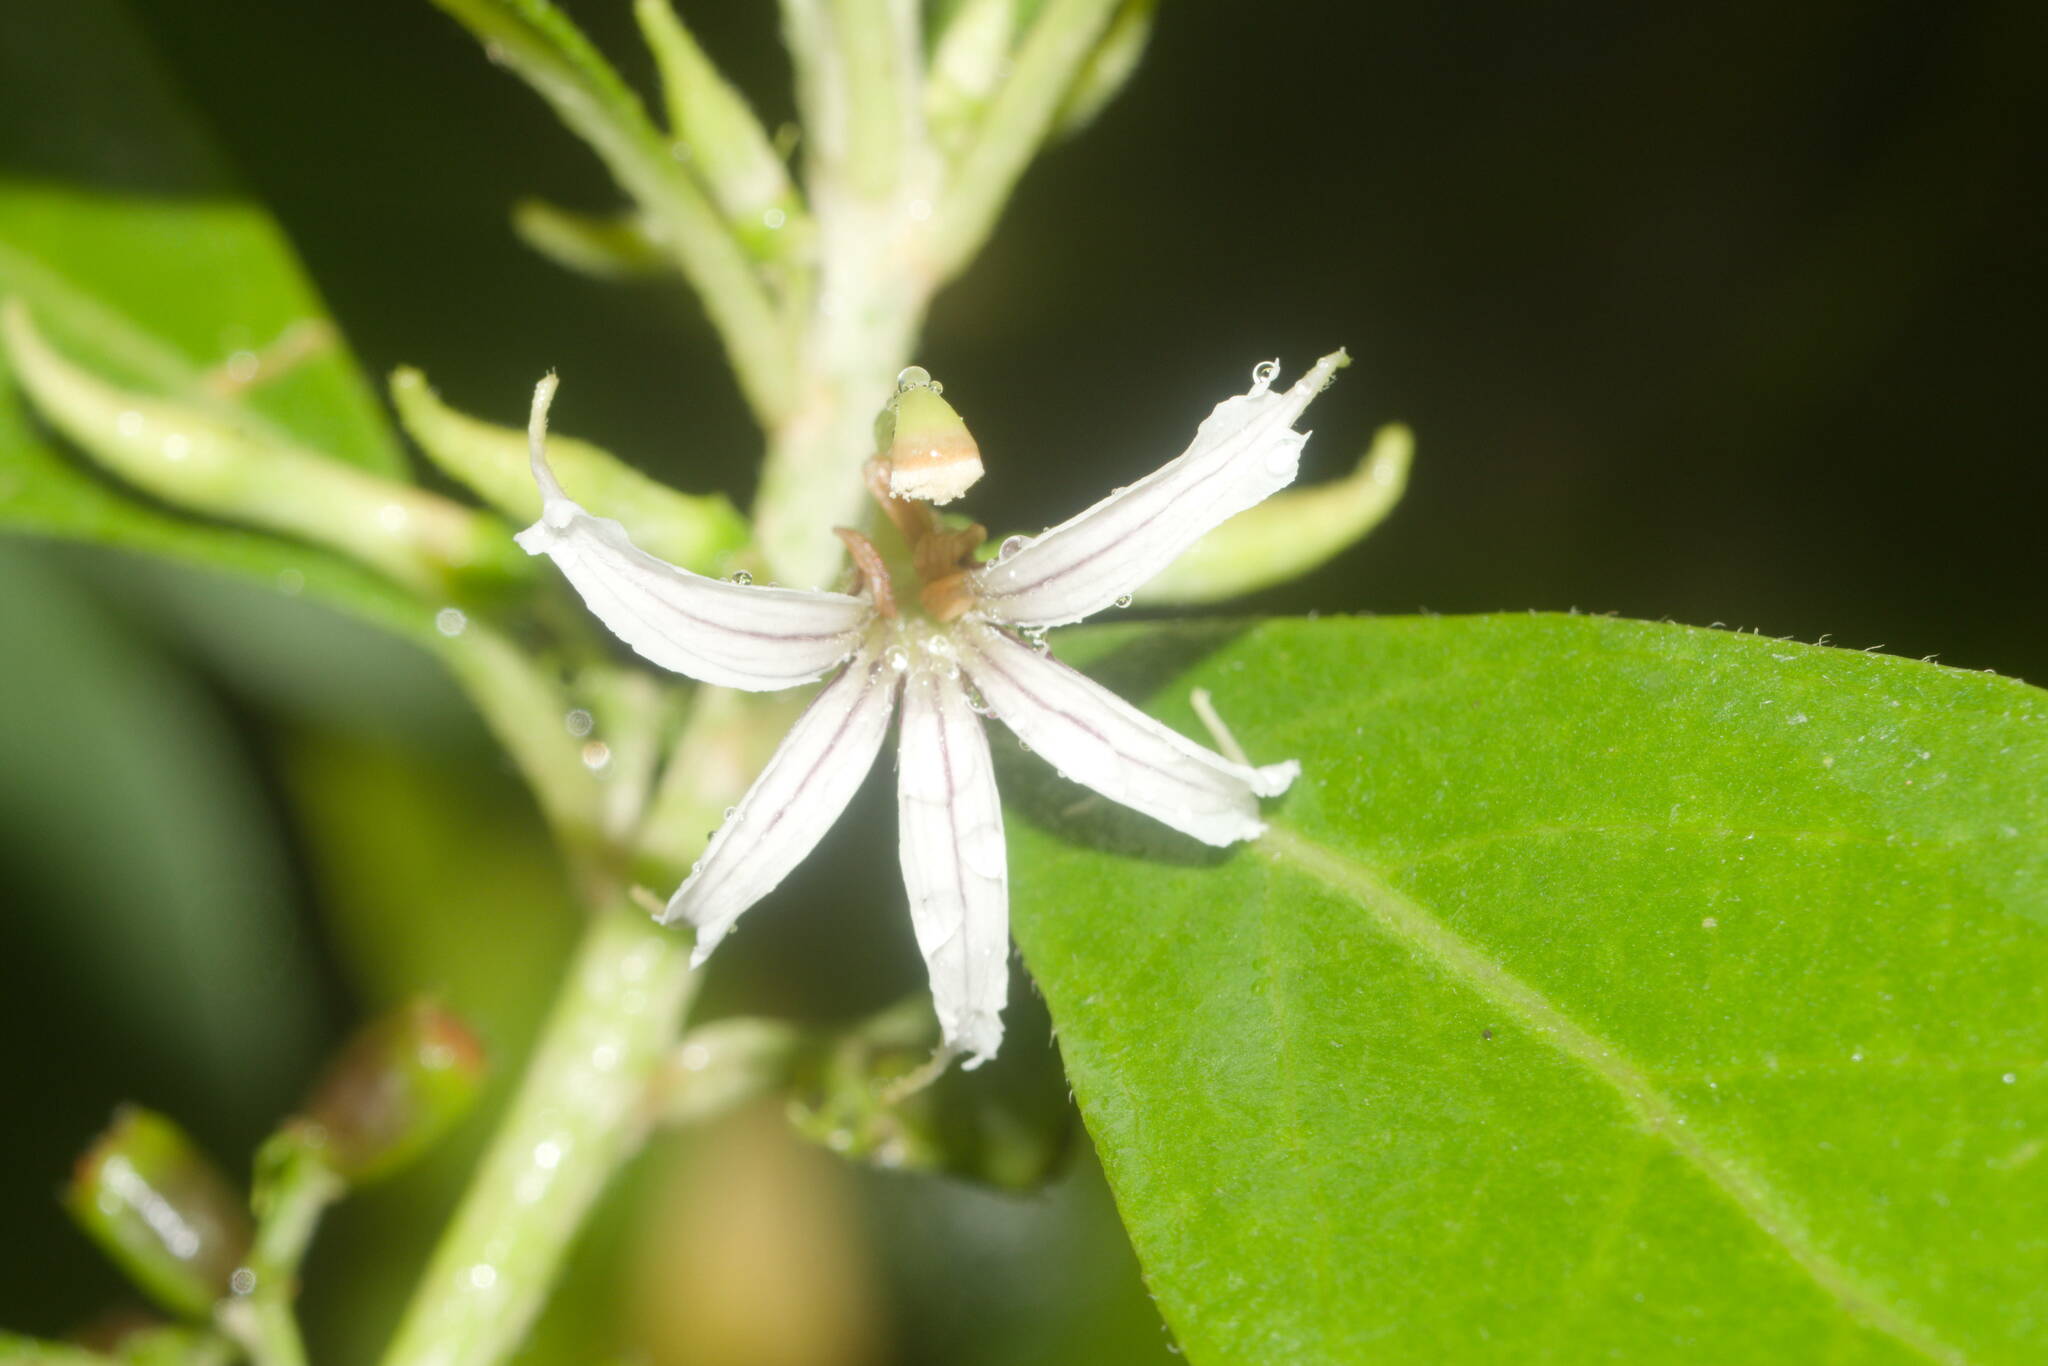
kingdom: Plantae
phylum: Tracheophyta
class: Magnoliopsida
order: Asterales
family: Goodeniaceae
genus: Scaevola
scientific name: Scaevola procera
